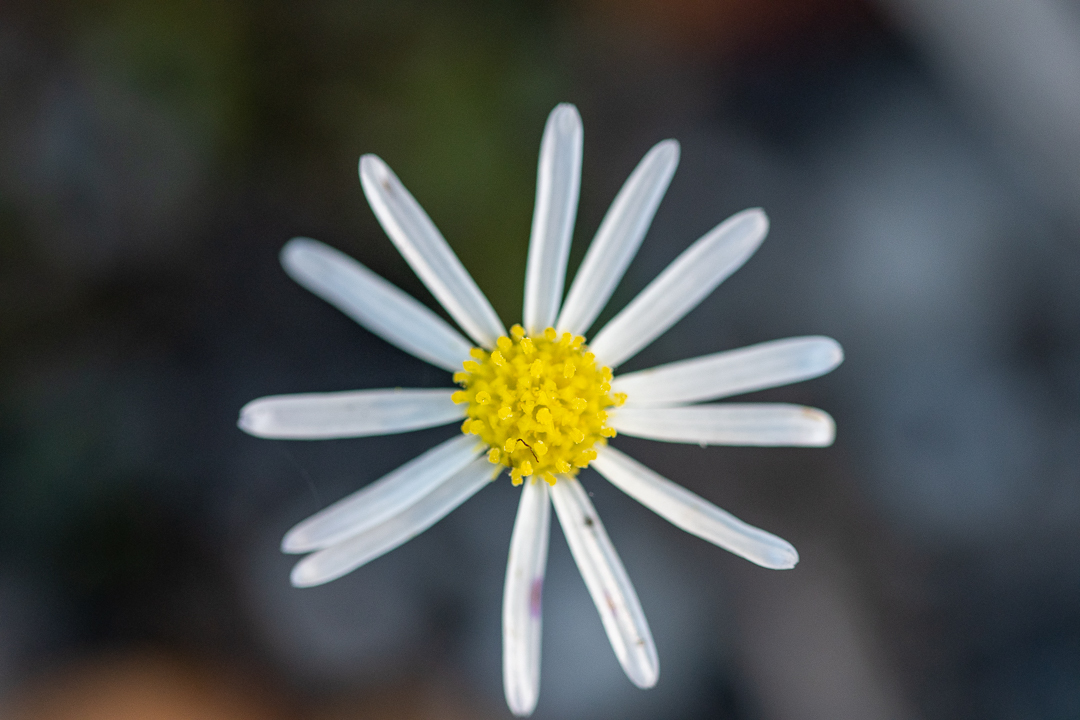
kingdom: Plantae
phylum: Tracheophyta
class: Magnoliopsida
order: Asterales
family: Asteraceae
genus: Felicia
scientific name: Felicia tenella
